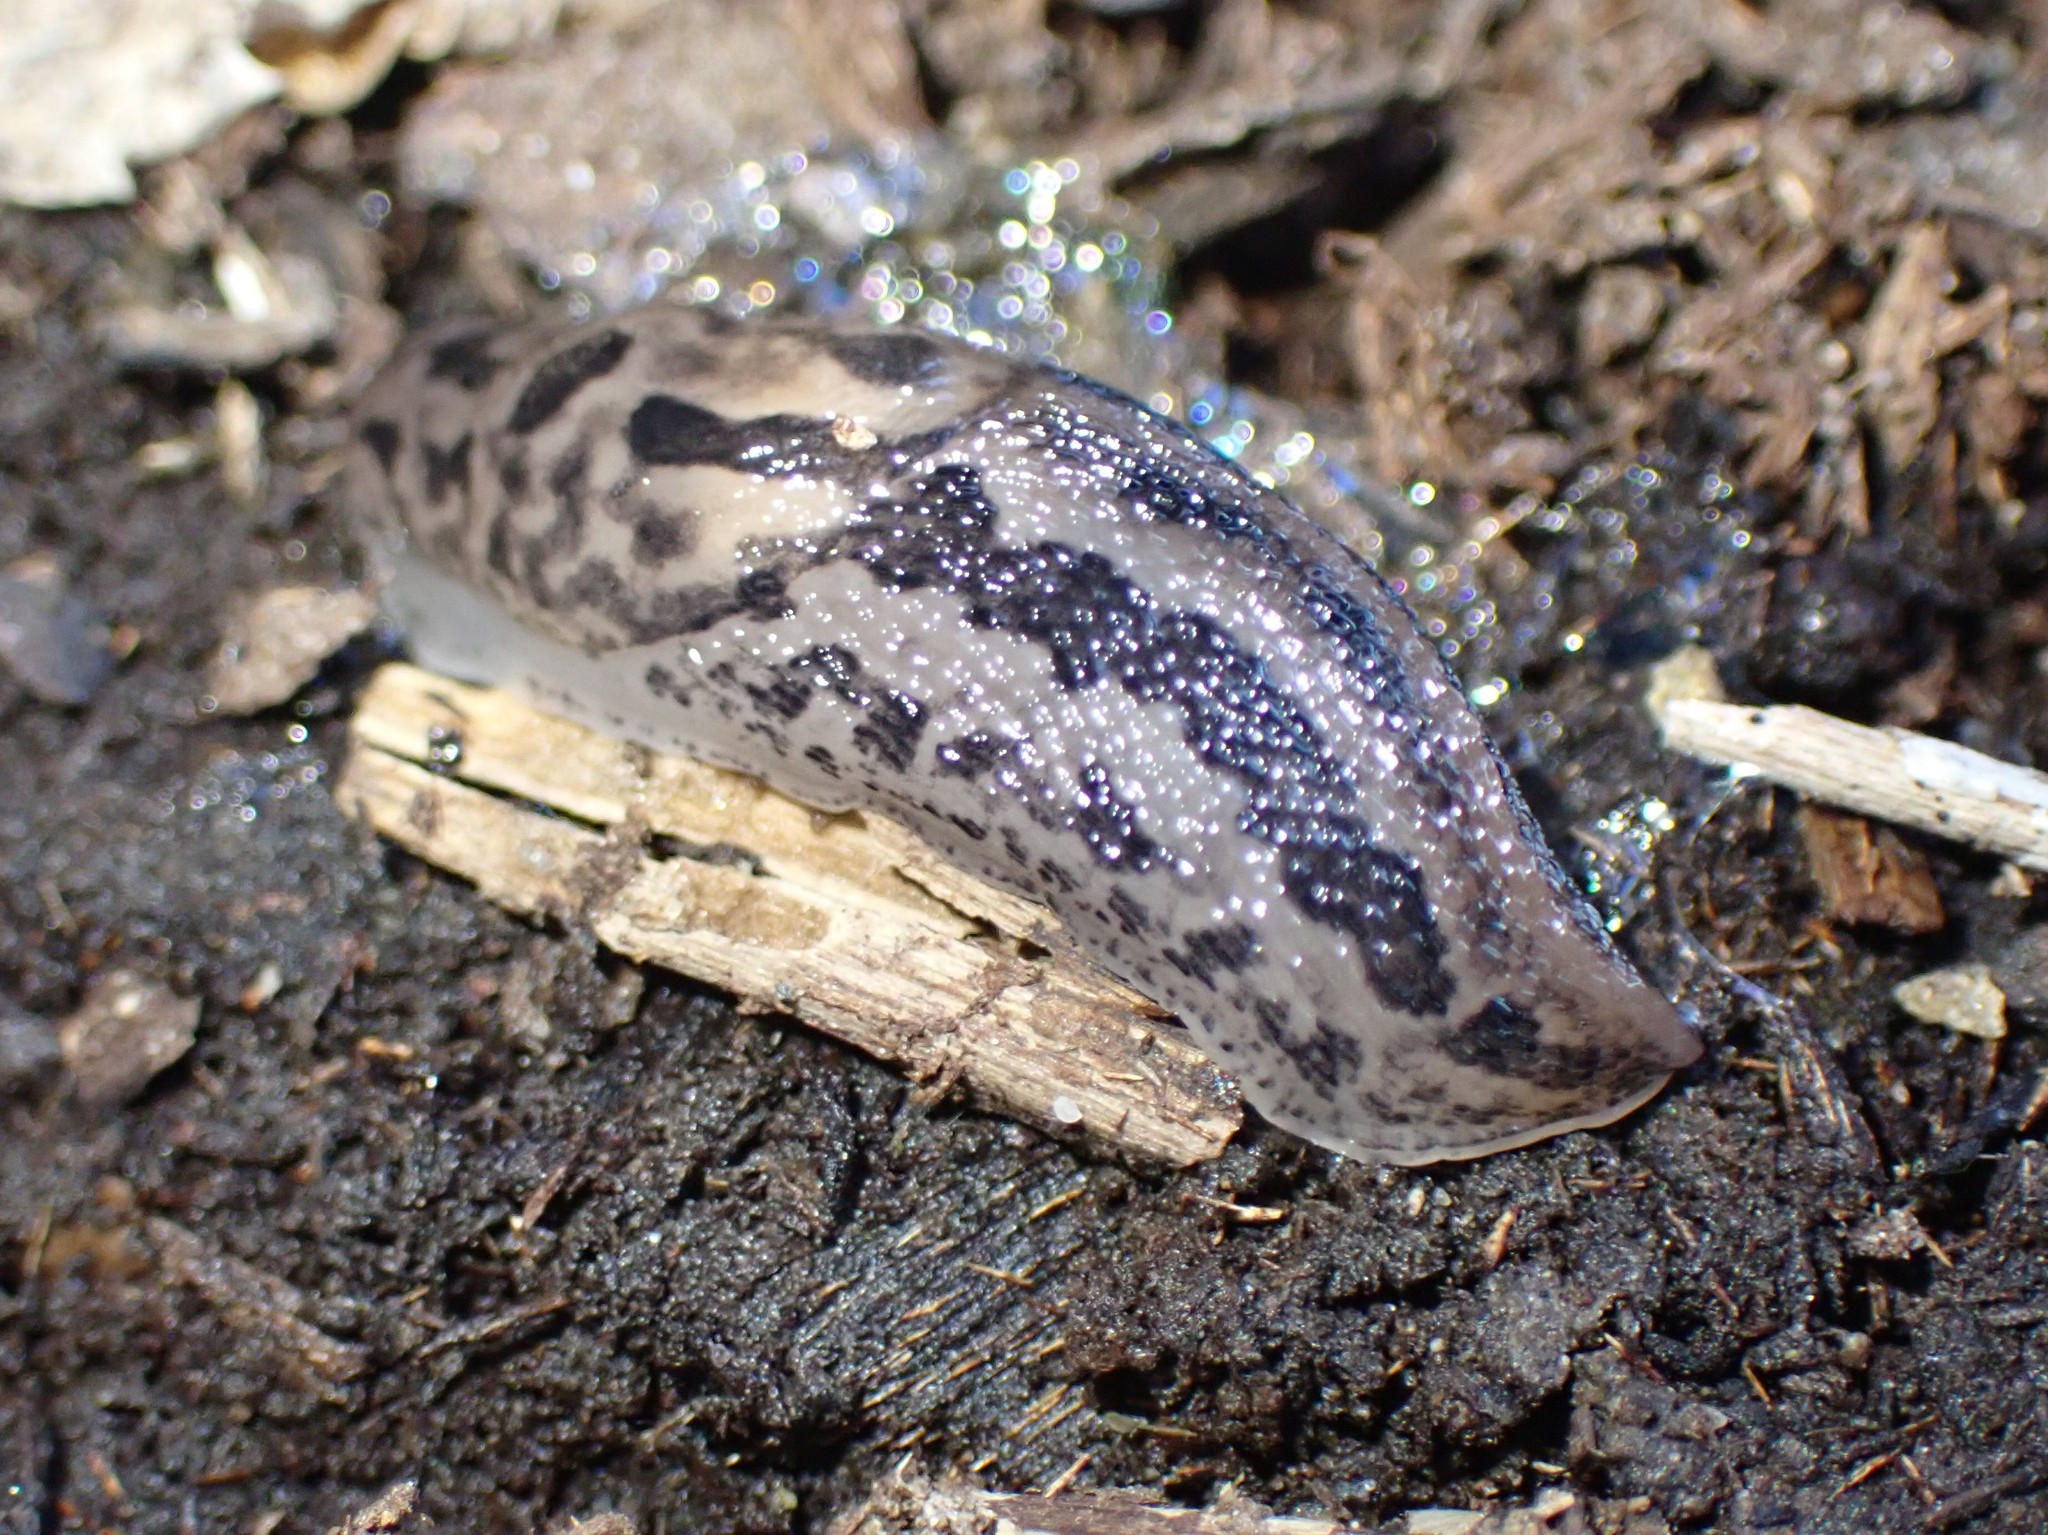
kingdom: Animalia
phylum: Mollusca
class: Gastropoda
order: Stylommatophora
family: Limacidae
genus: Limax
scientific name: Limax maximus
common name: Great grey slug
